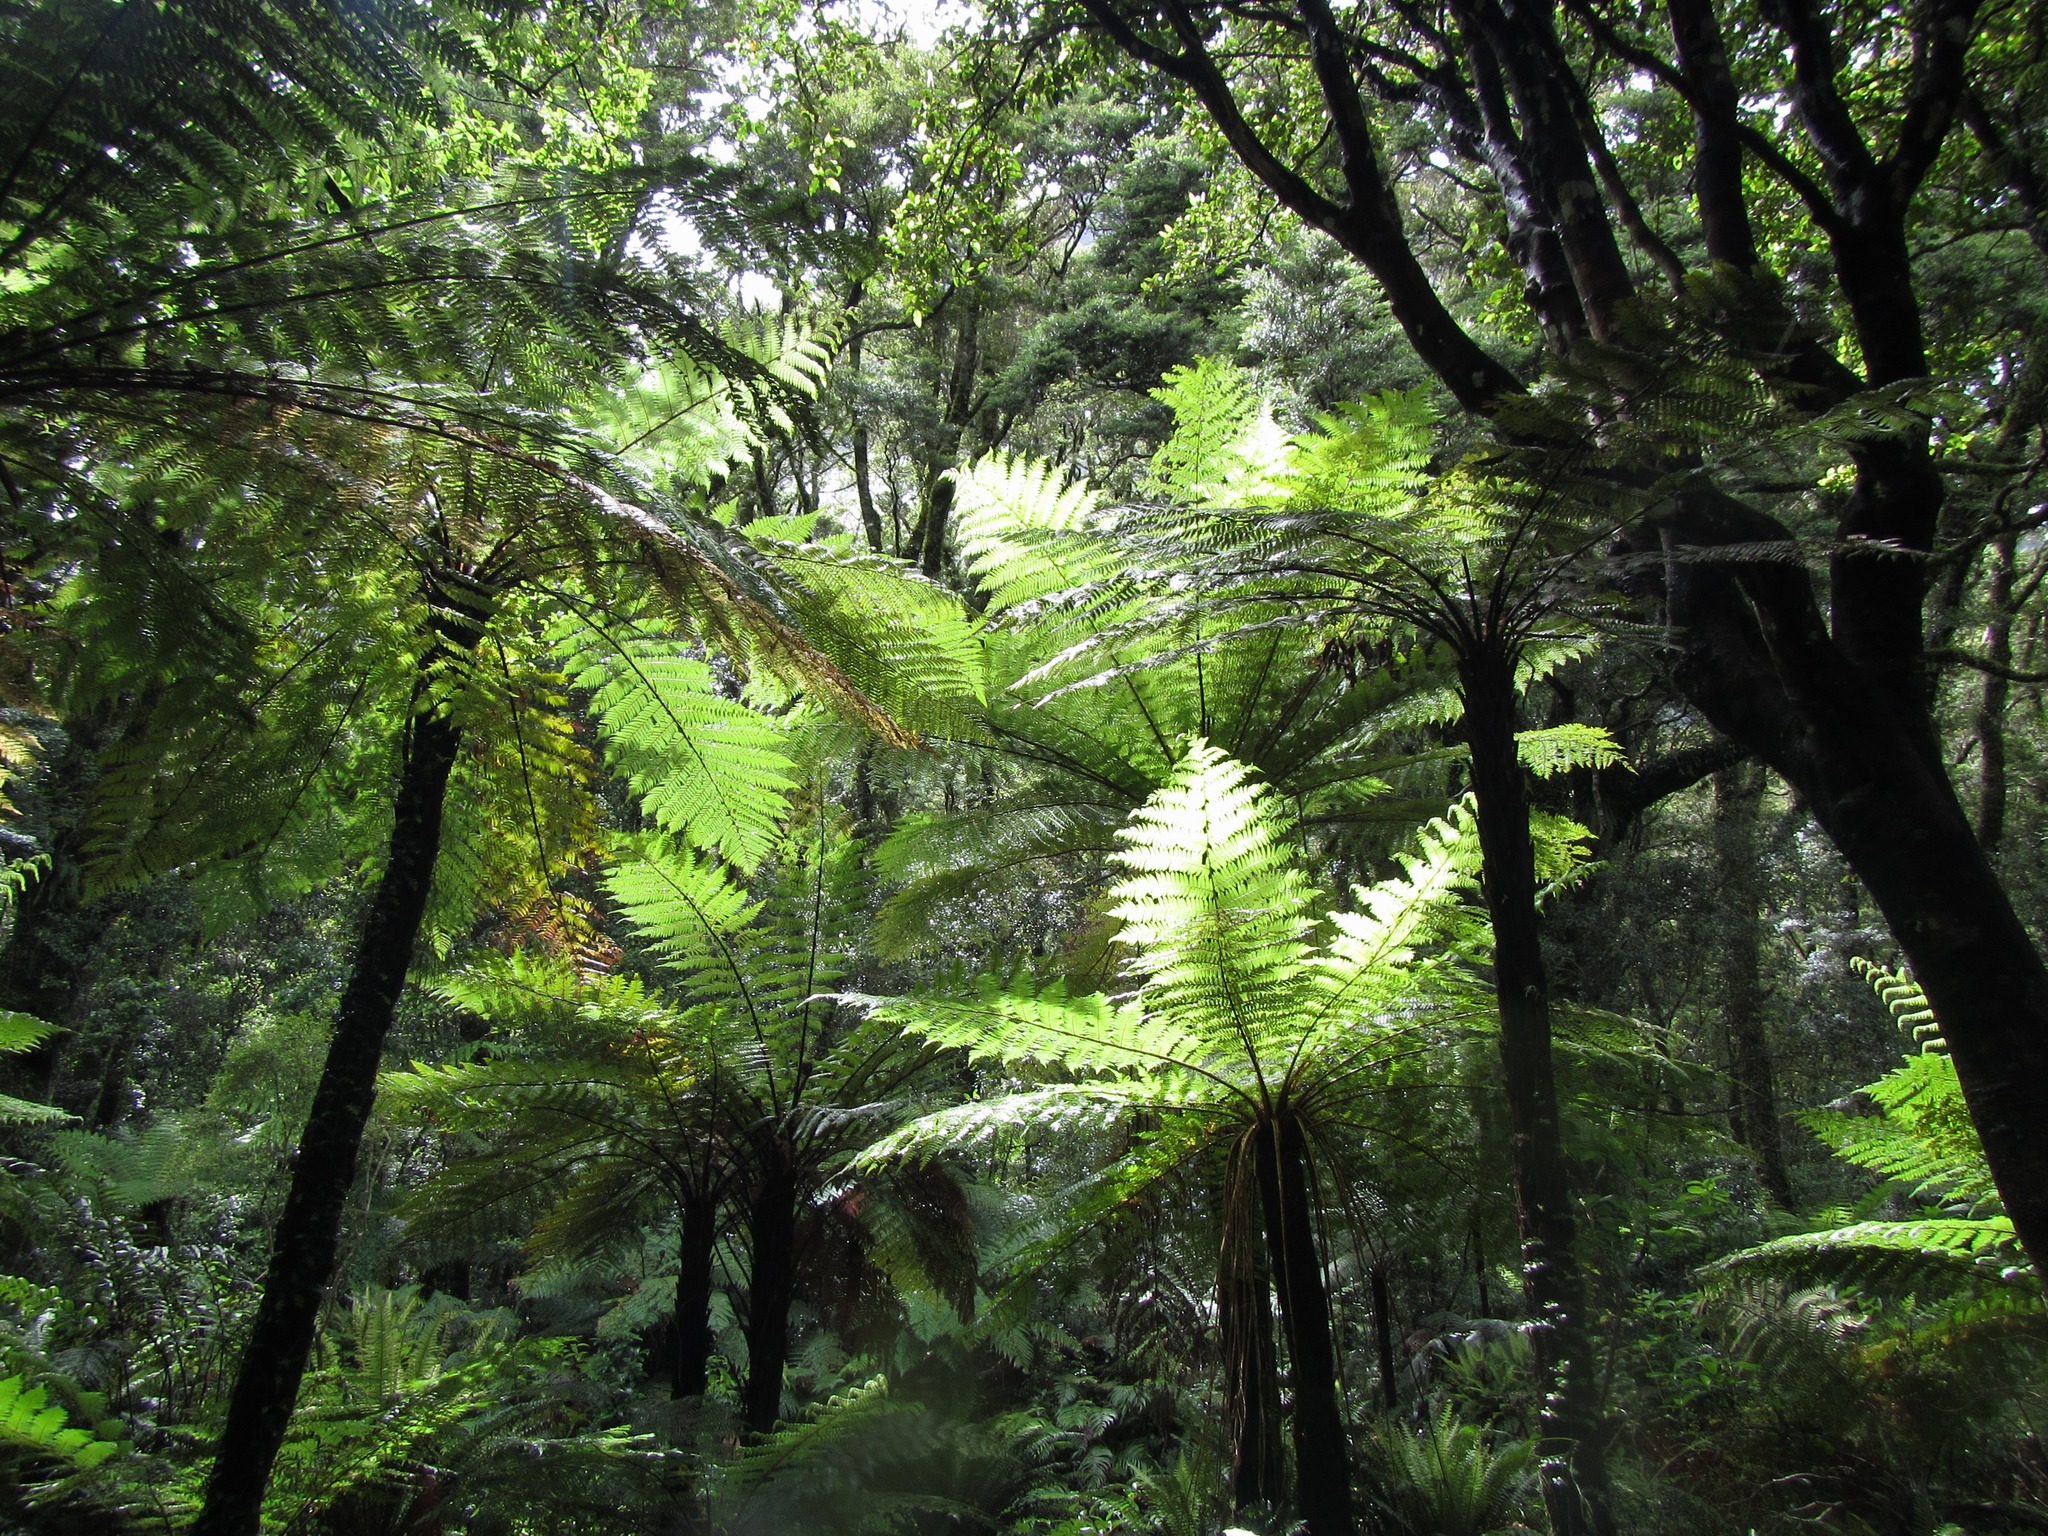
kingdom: Plantae
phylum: Tracheophyta
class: Polypodiopsida
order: Cyatheales
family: Cyatheaceae
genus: Alsophila
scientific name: Alsophila smithii
